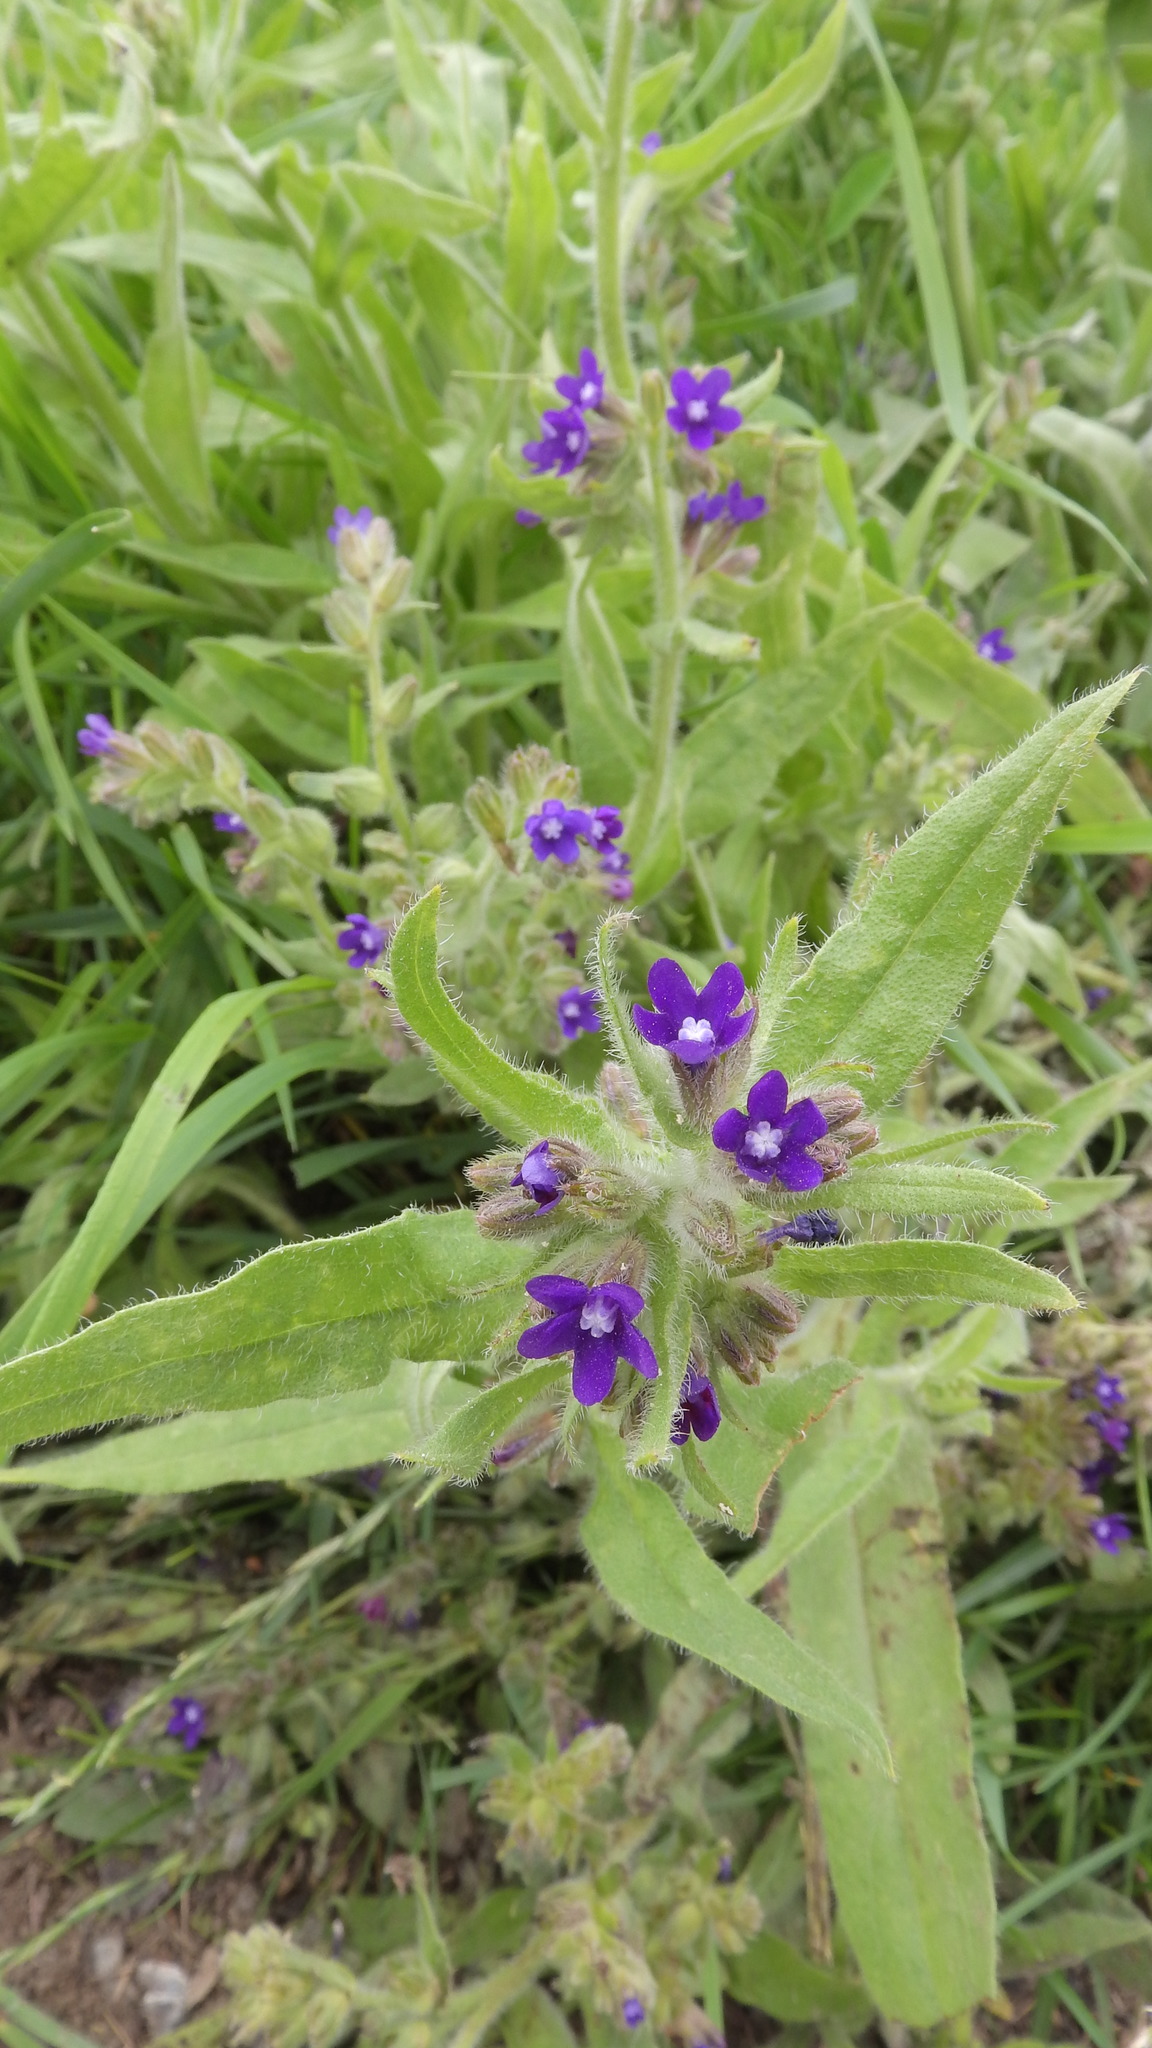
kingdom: Plantae
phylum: Tracheophyta
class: Magnoliopsida
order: Boraginales
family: Boraginaceae
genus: Anchusa
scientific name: Anchusa officinalis
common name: Alkanet
